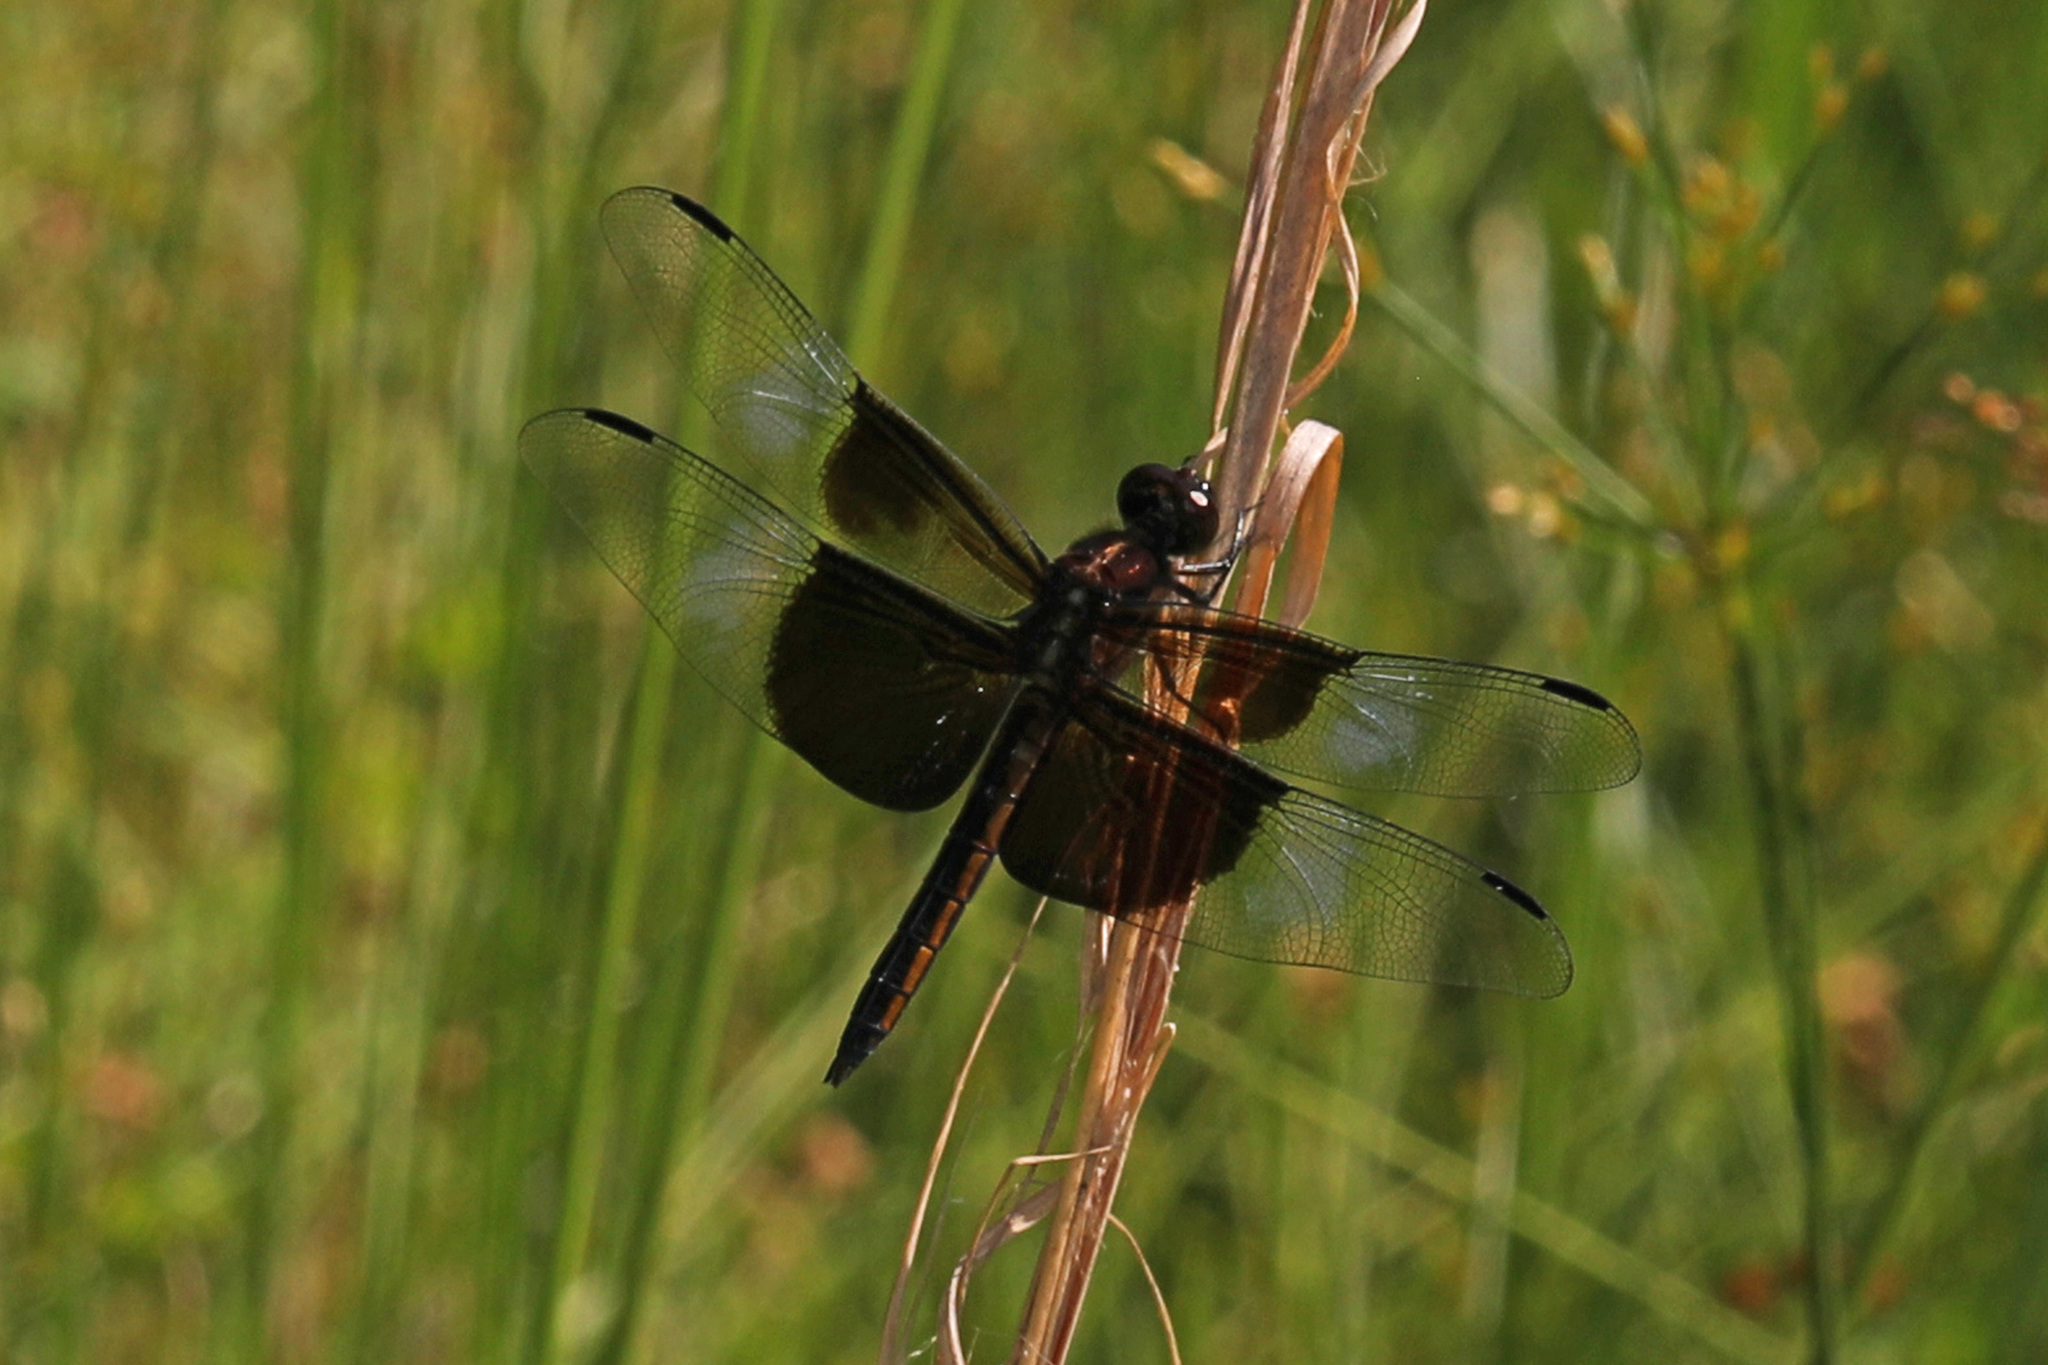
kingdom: Animalia
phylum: Arthropoda
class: Insecta
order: Odonata
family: Libellulidae
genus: Libellula
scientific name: Libellula luctuosa
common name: Widow skimmer
